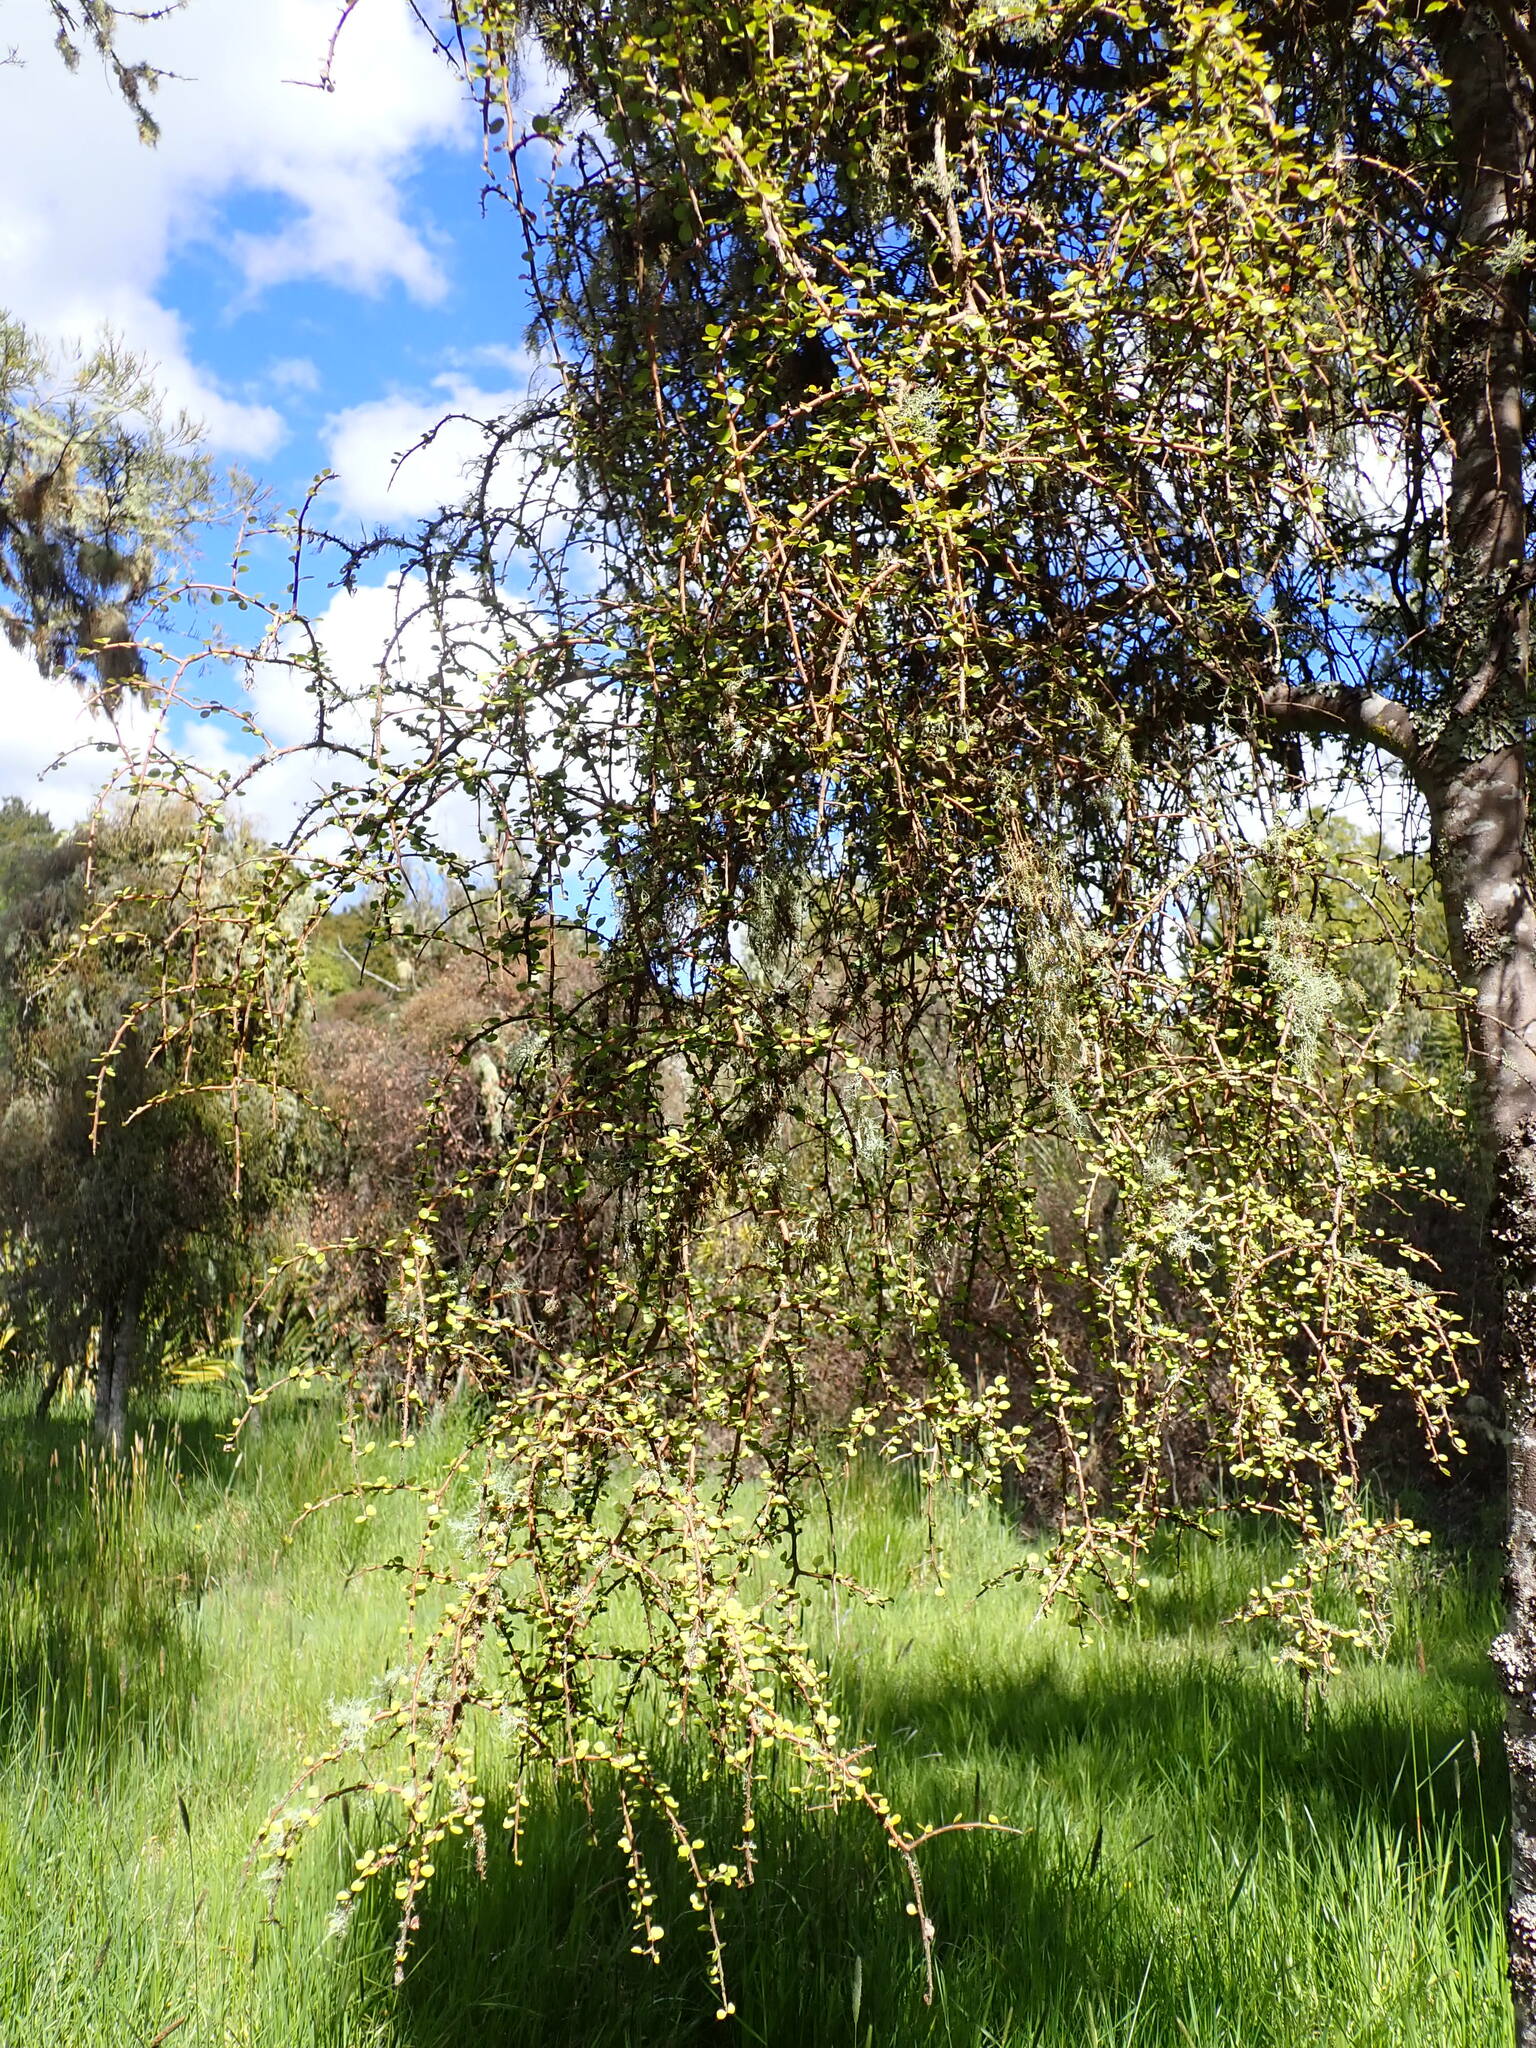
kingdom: Plantae
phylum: Tracheophyta
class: Magnoliopsida
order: Ericales
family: Primulaceae
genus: Myrsine
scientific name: Myrsine divaricata
